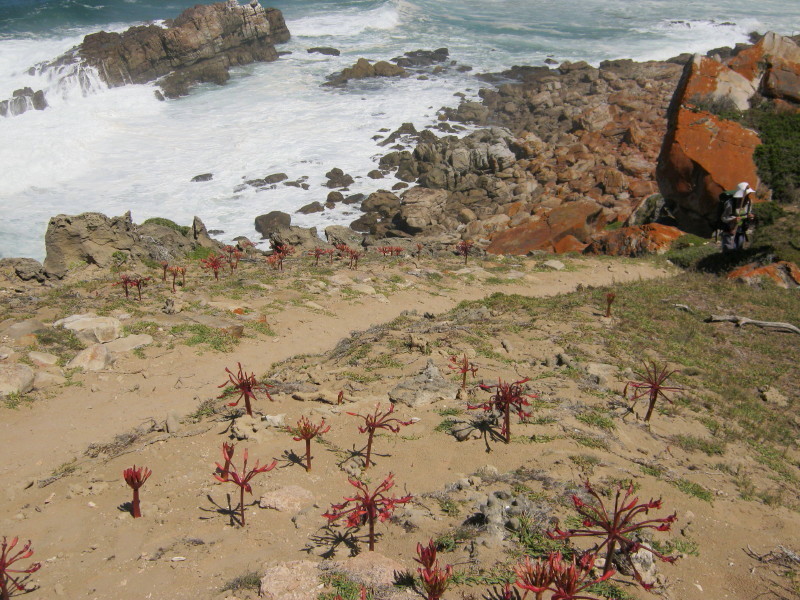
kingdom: Plantae
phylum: Tracheophyta
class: Liliopsida
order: Asparagales
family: Amaryllidaceae
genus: Brunsvigia
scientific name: Brunsvigia orientalis
